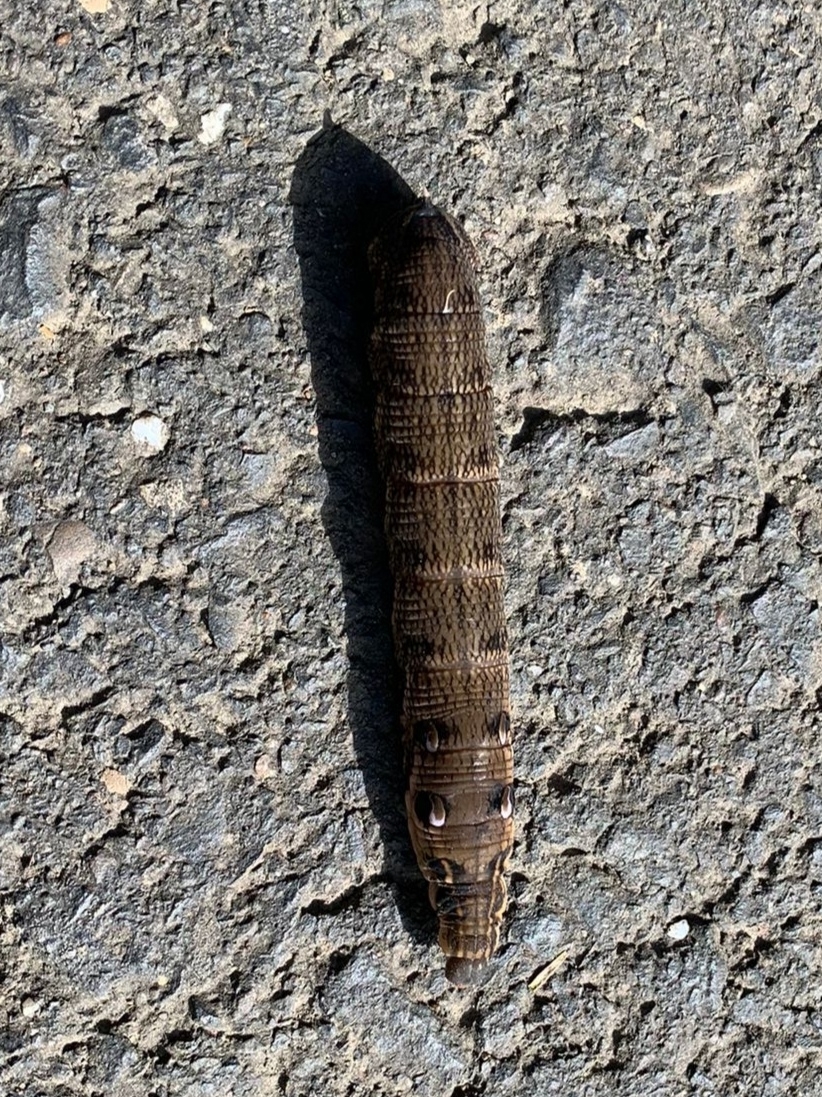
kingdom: Animalia
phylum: Arthropoda
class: Insecta
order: Lepidoptera
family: Sphingidae
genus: Deilephila
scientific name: Deilephila elpenor
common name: Elephant hawk-moth
